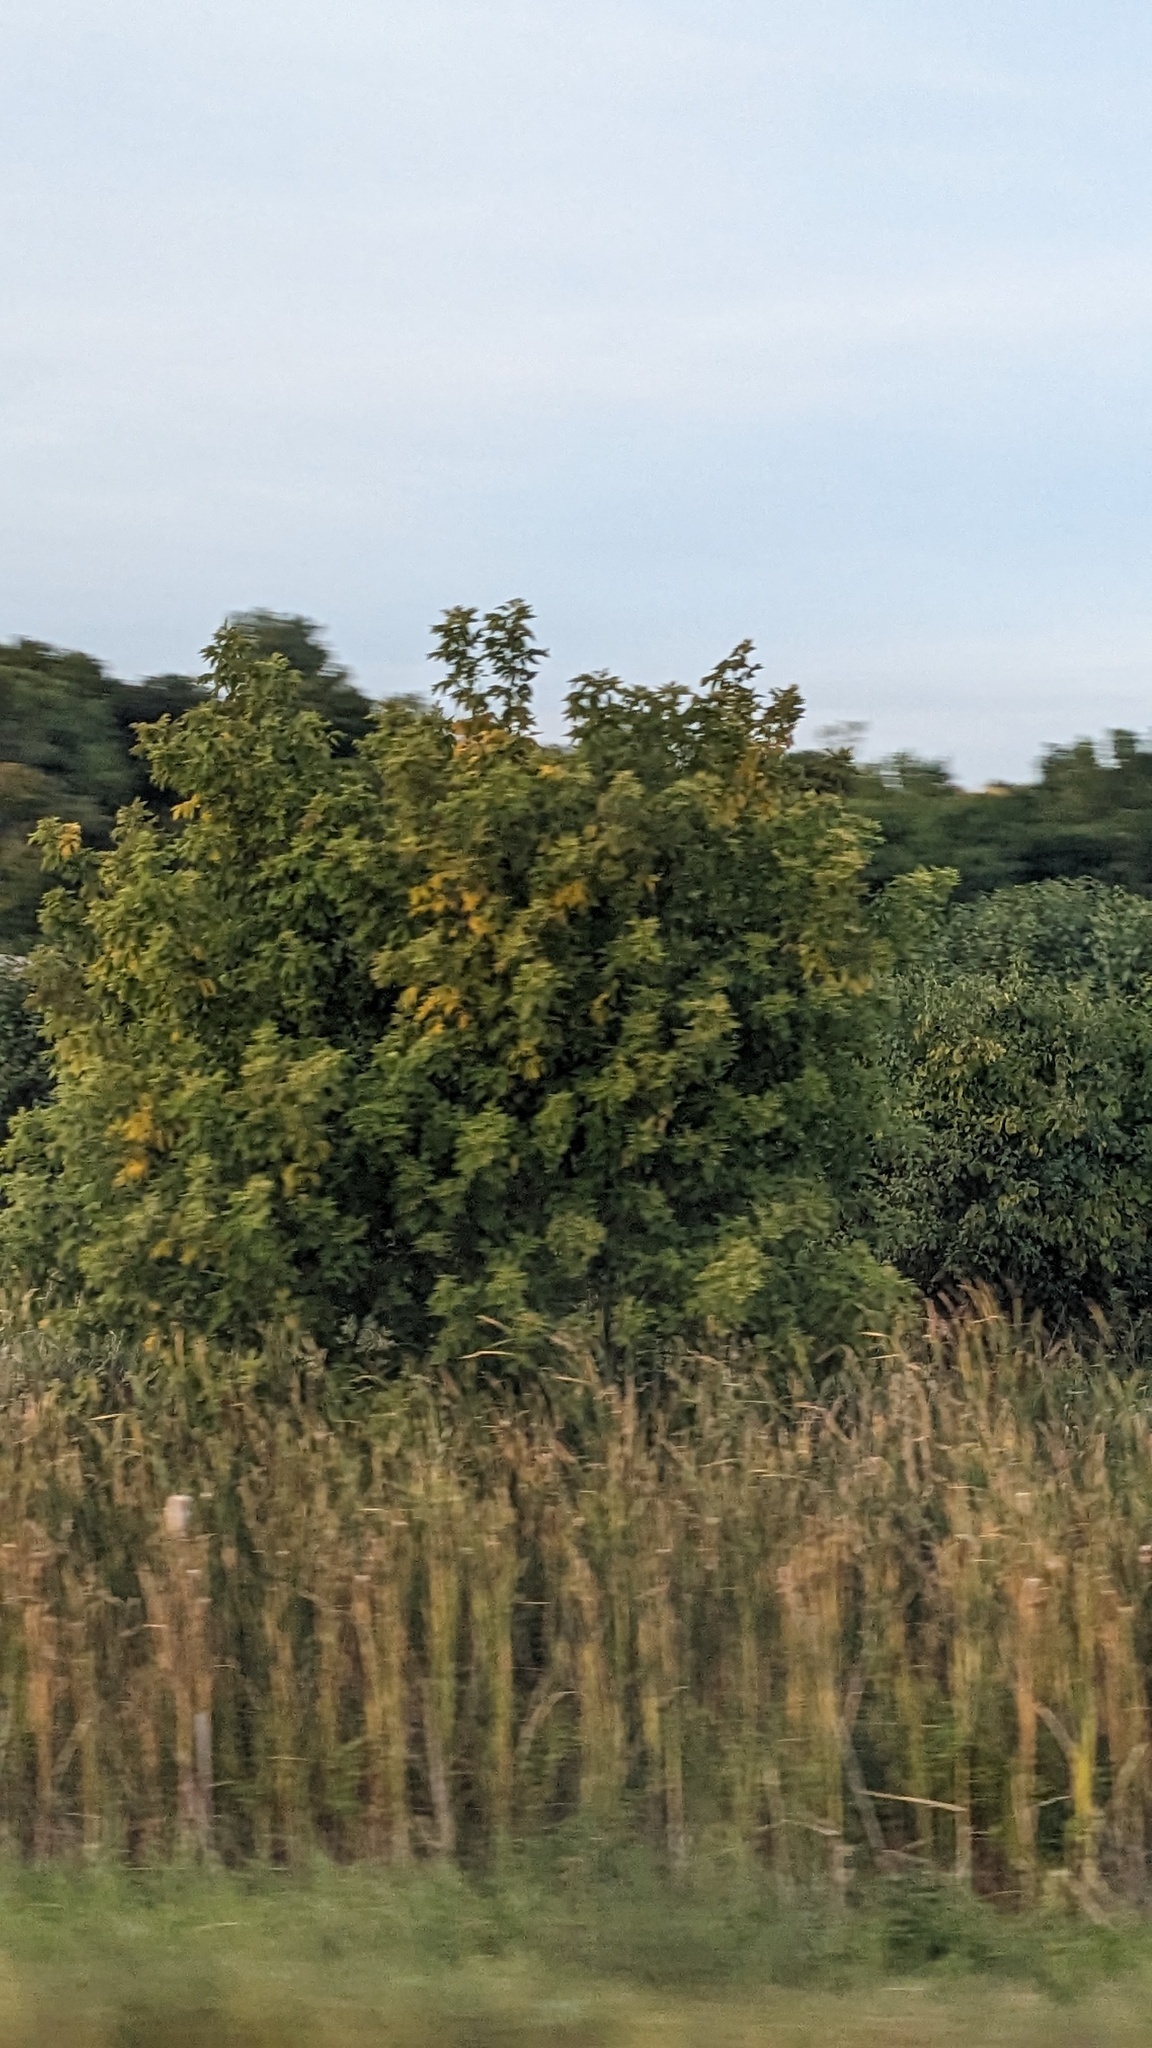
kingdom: Plantae
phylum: Tracheophyta
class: Magnoliopsida
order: Sapindales
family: Sapindaceae
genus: Acer
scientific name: Acer negundo
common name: Ashleaf maple
